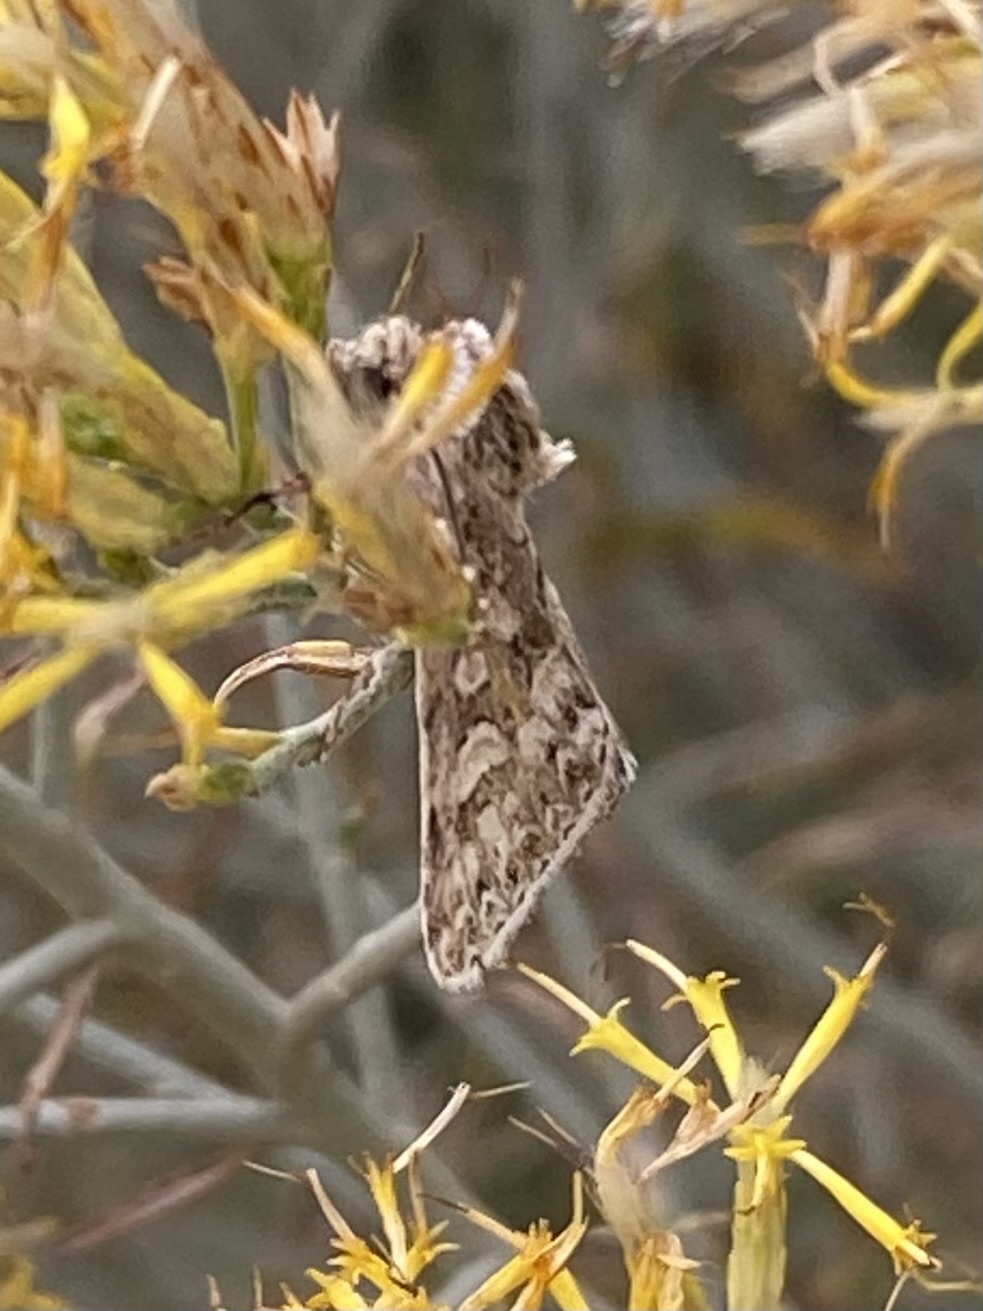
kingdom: Animalia
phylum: Arthropoda
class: Insecta
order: Lepidoptera
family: Noctuidae
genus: Sympistis
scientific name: Sympistis augustus
